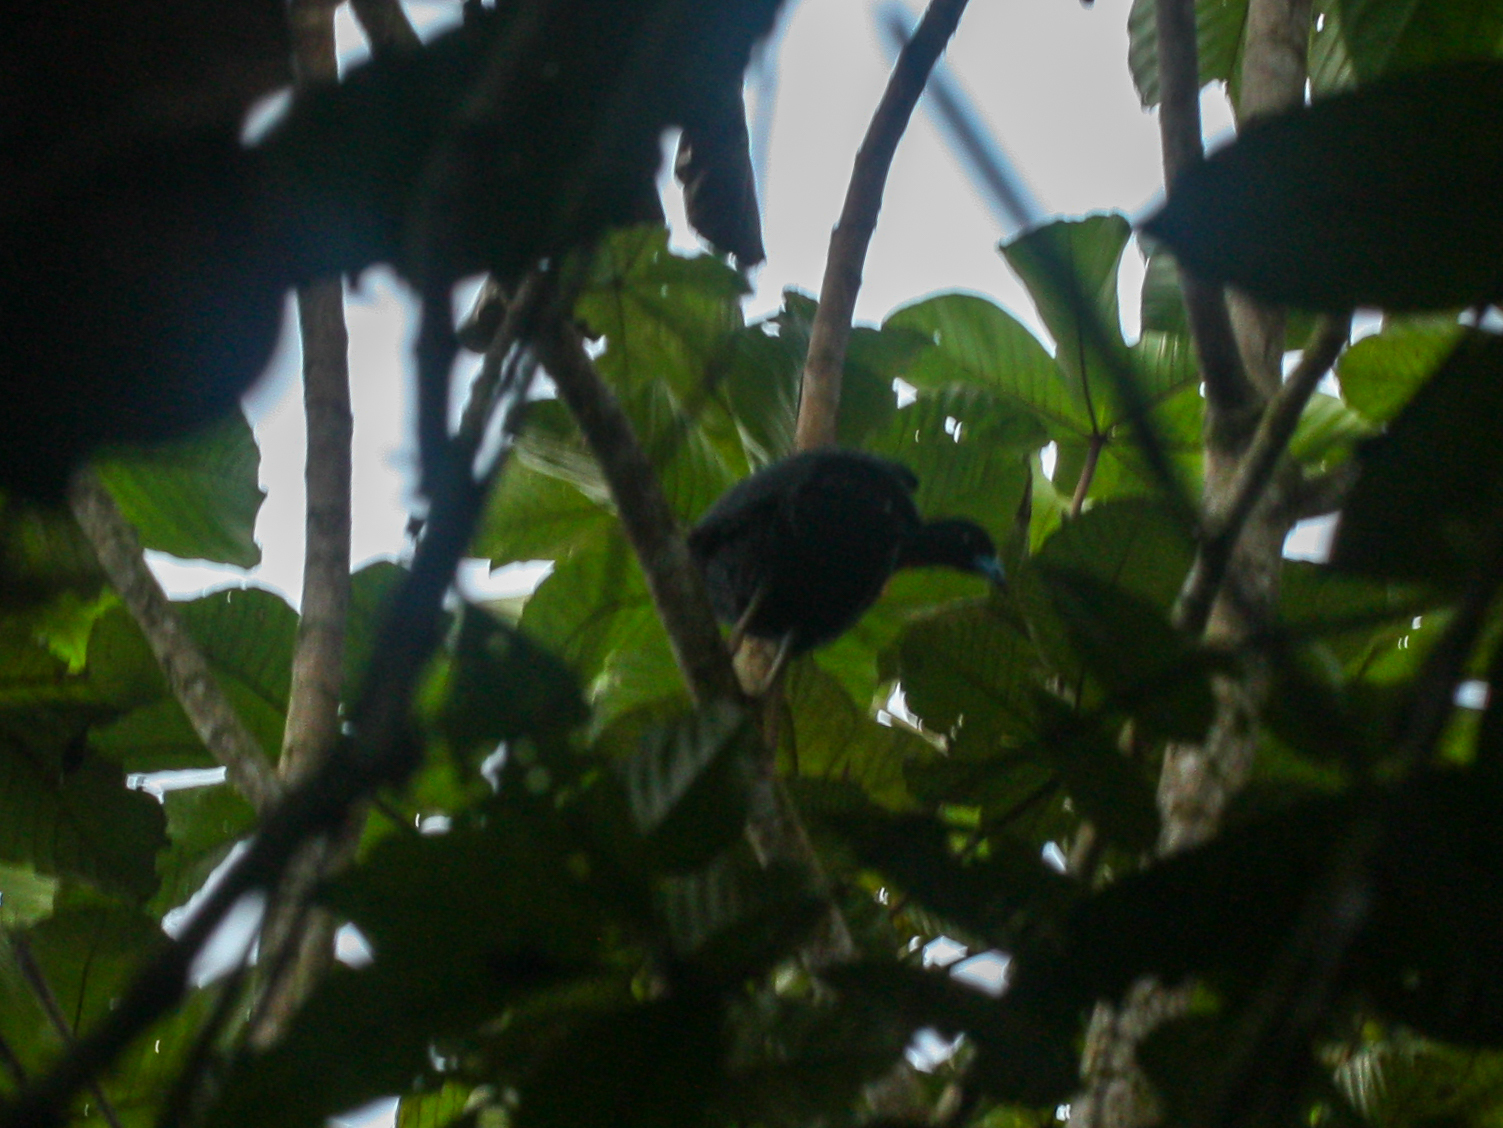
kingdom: Animalia
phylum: Chordata
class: Aves
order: Galliformes
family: Cracidae
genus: Aburria
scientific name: Aburria aburri
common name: Wattled guan
